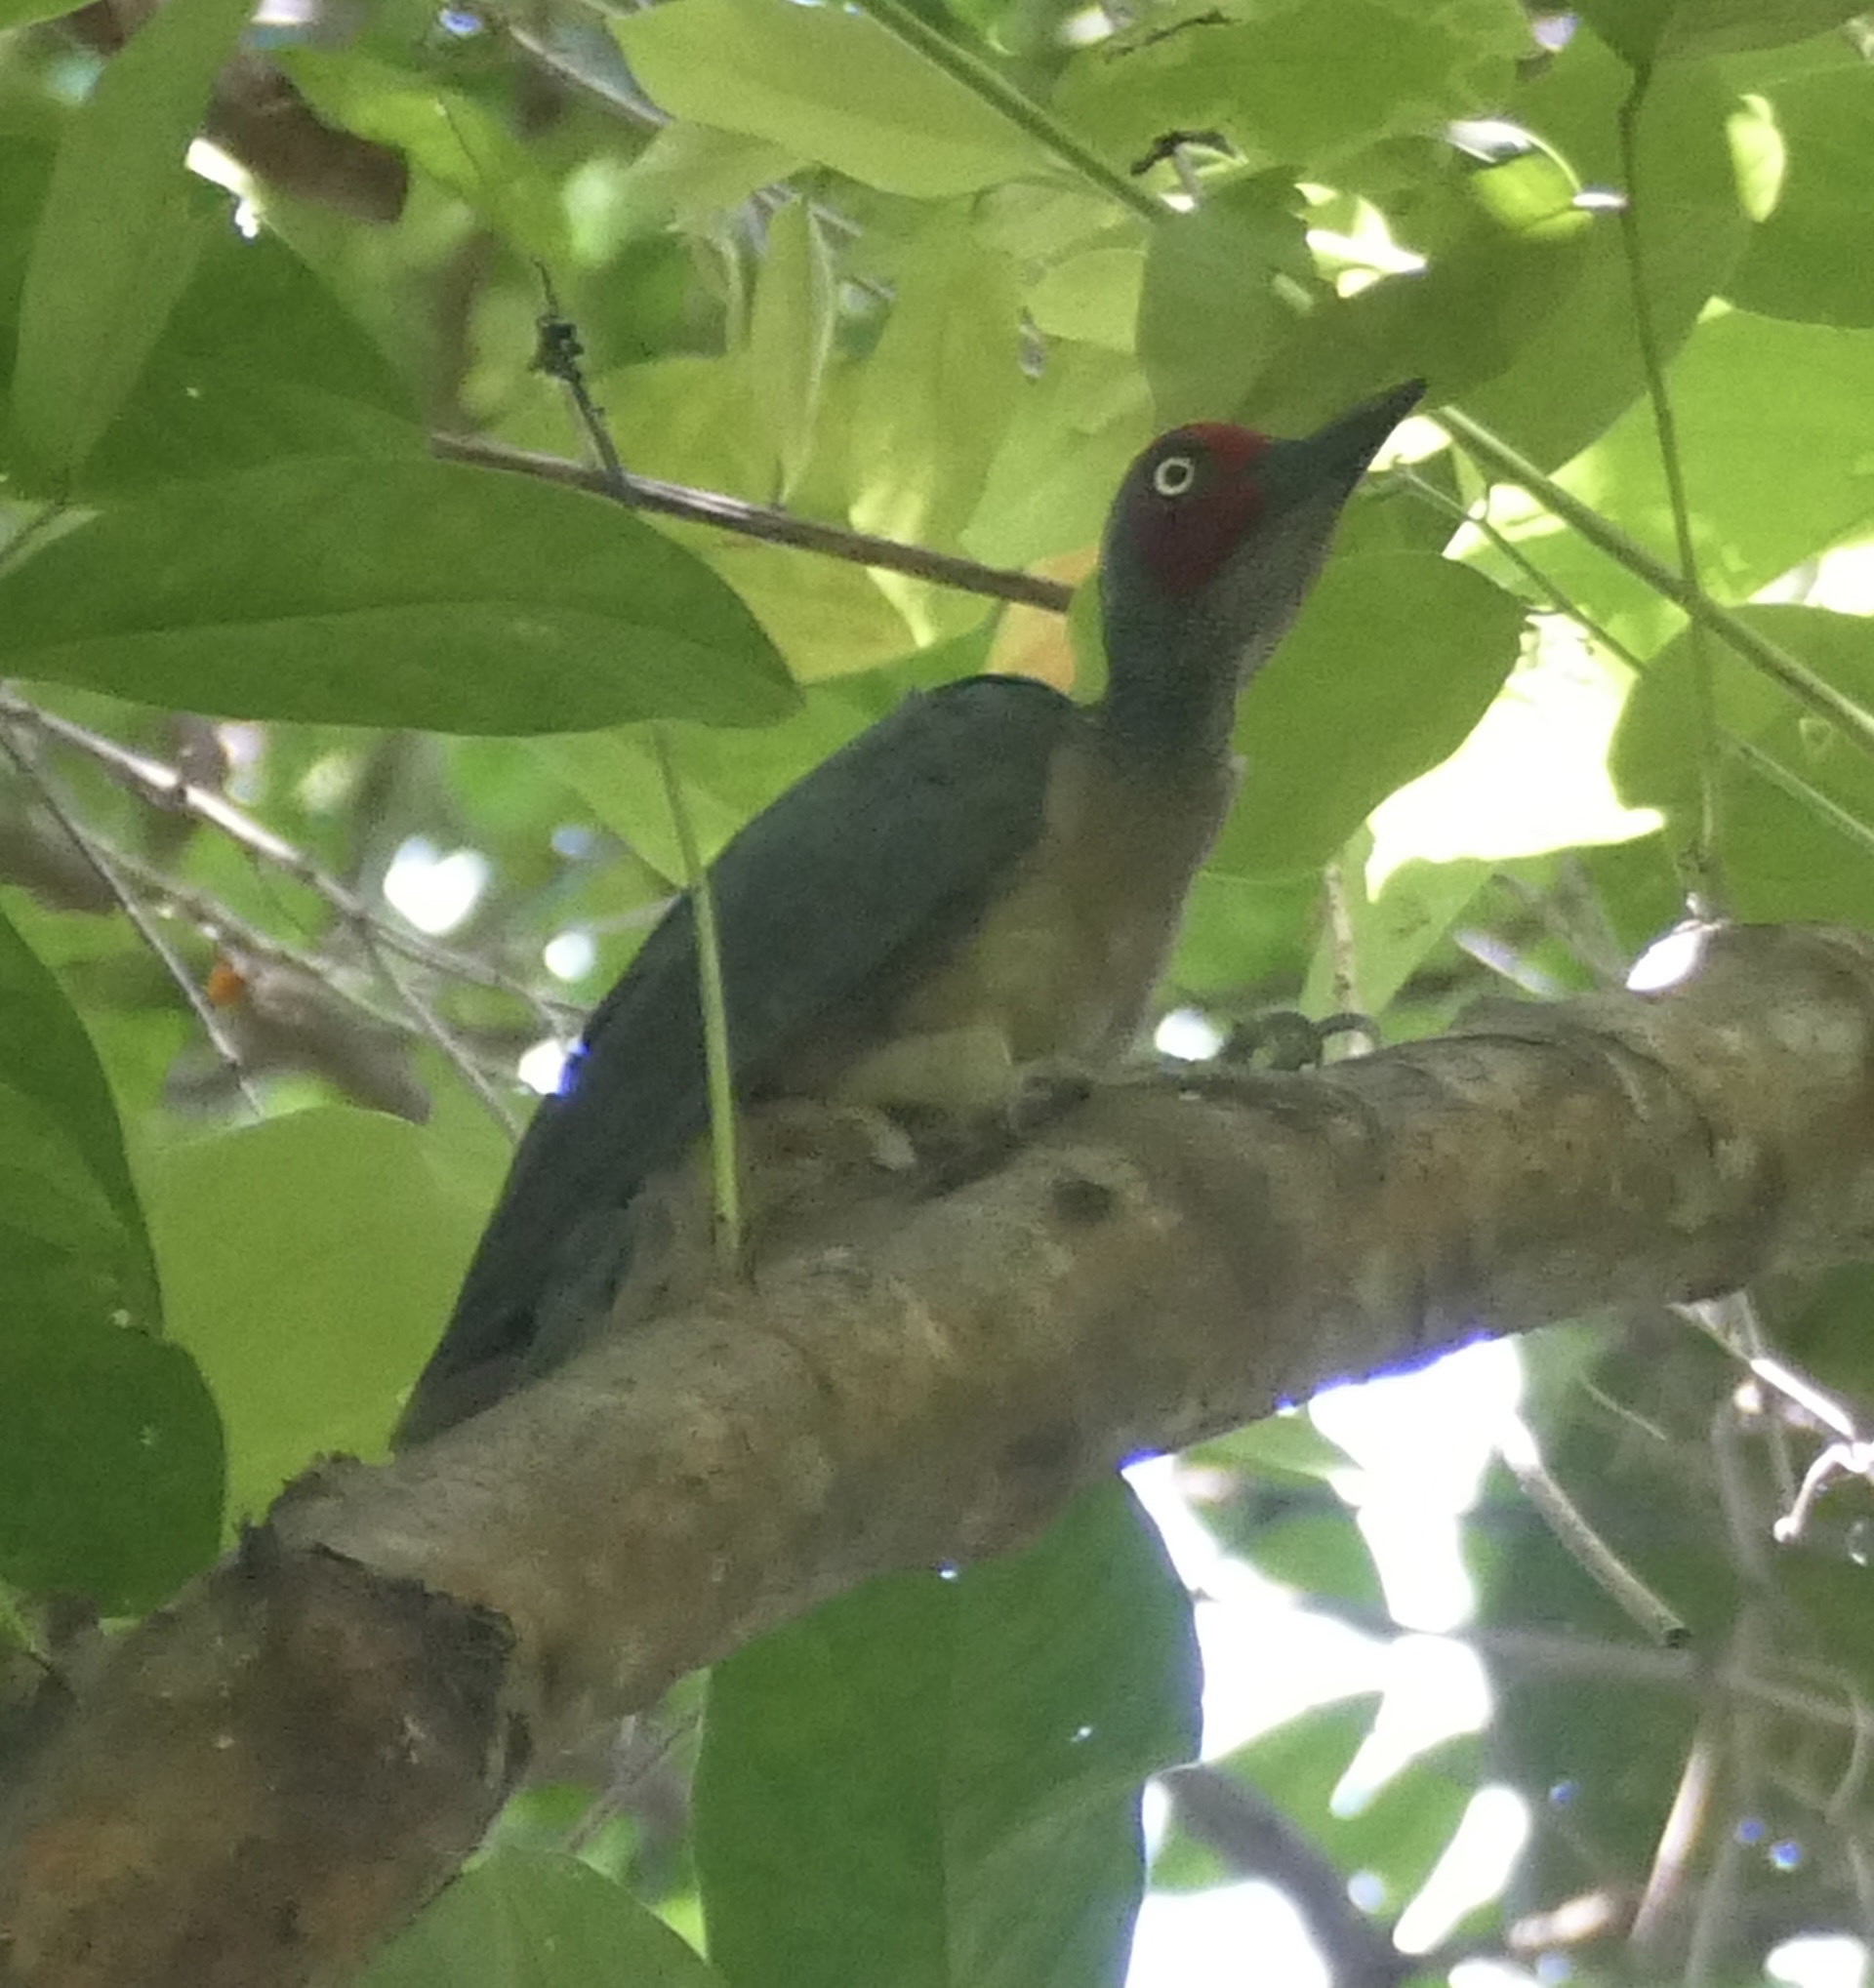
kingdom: Animalia
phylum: Chordata
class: Aves
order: Piciformes
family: Picidae
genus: Mulleripicus
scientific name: Mulleripicus fulvus
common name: Ashy woodpecker
